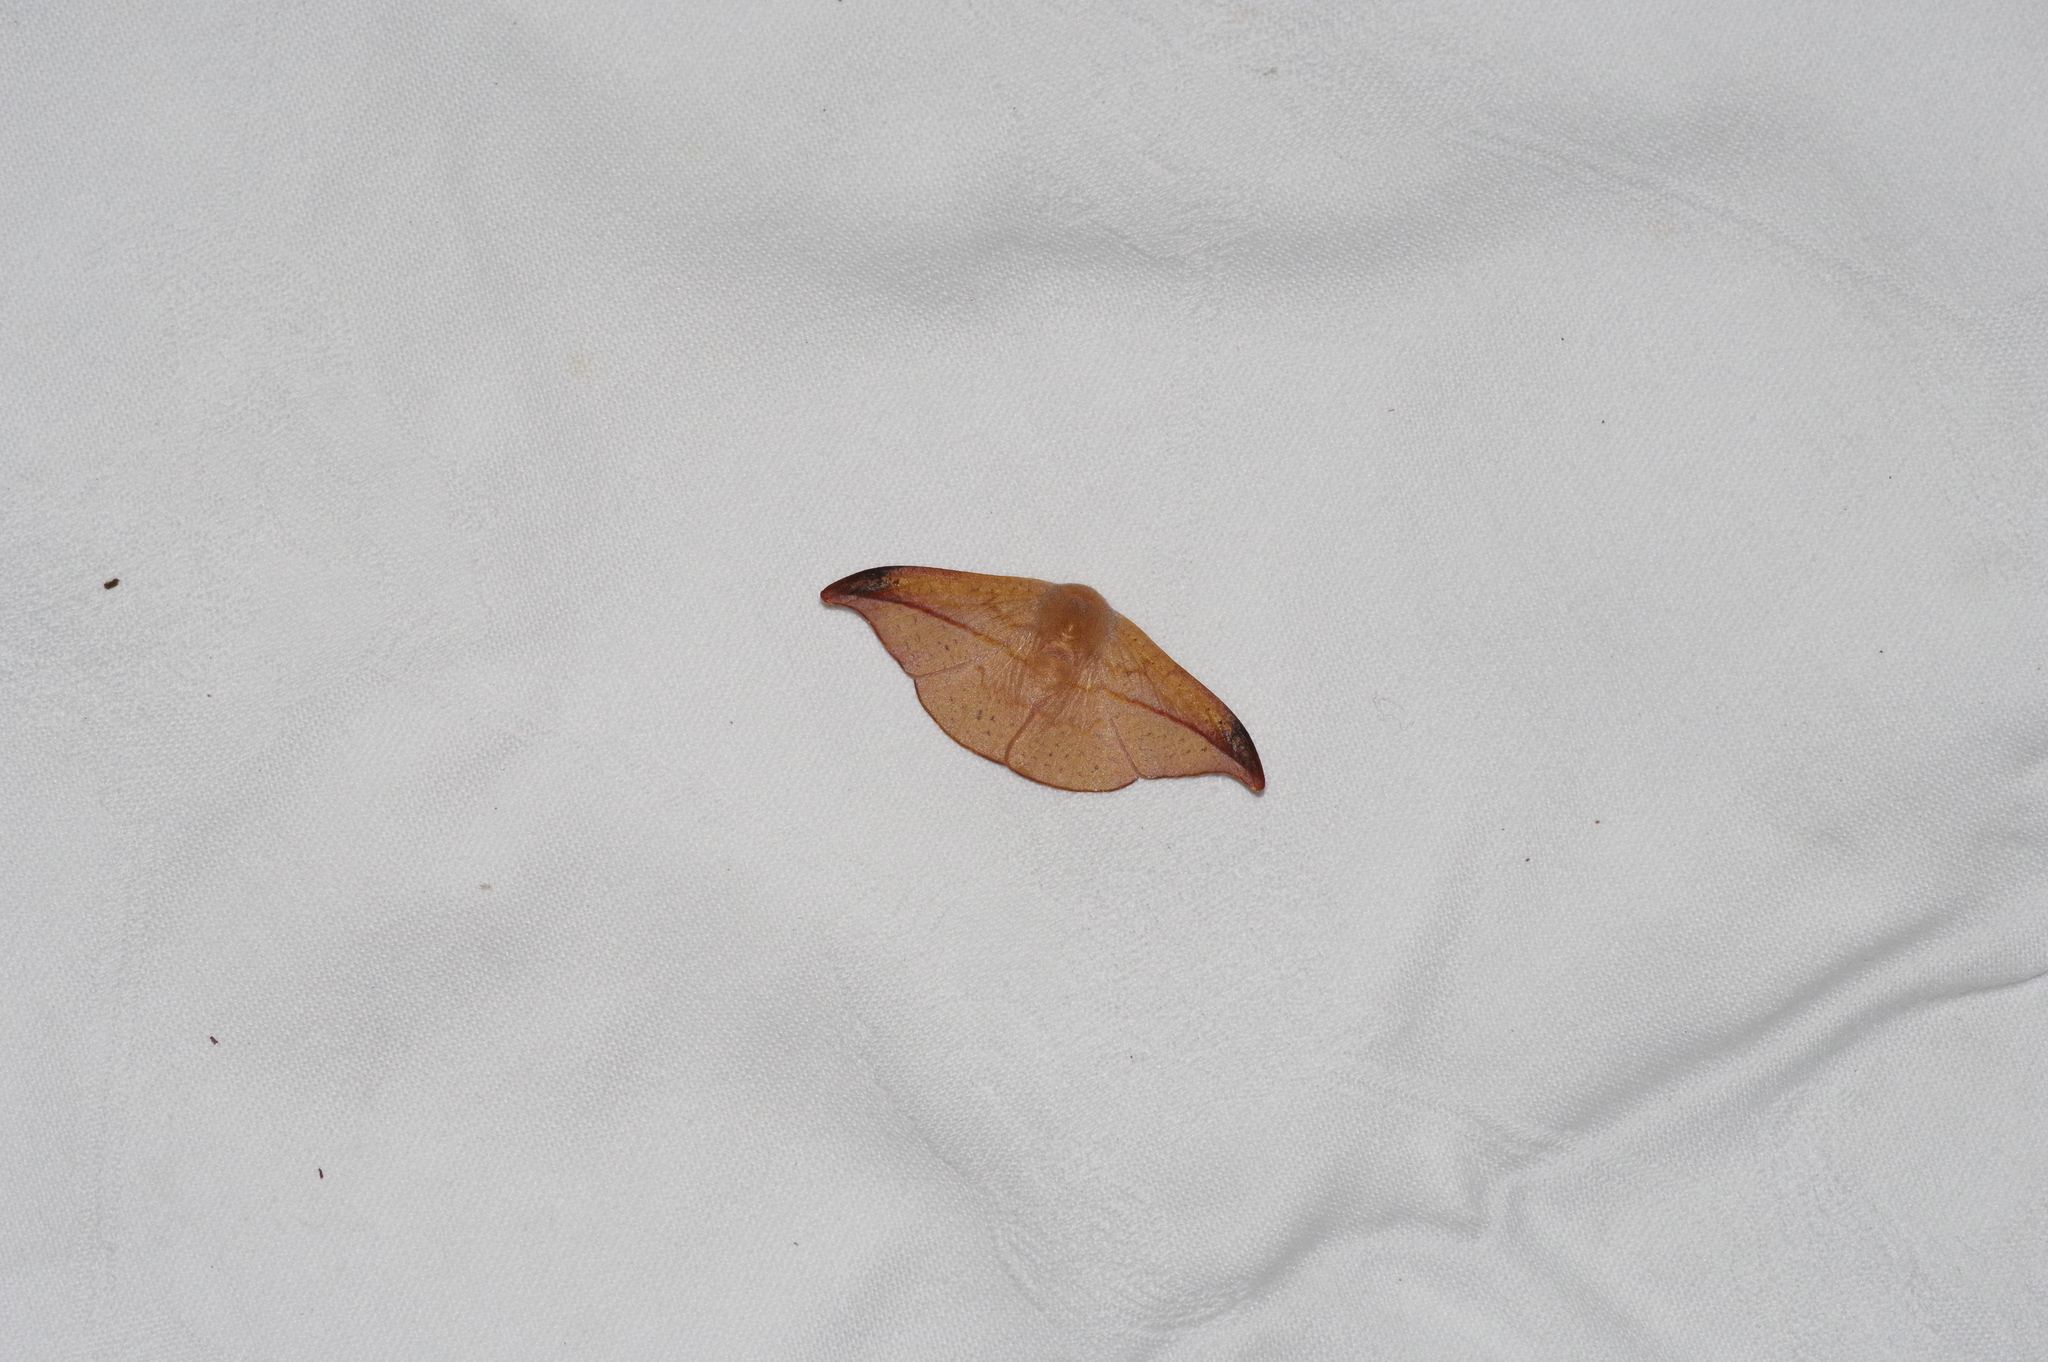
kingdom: Animalia
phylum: Arthropoda
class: Insecta
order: Lepidoptera
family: Drepanidae
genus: Oreta
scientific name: Oreta insignis
